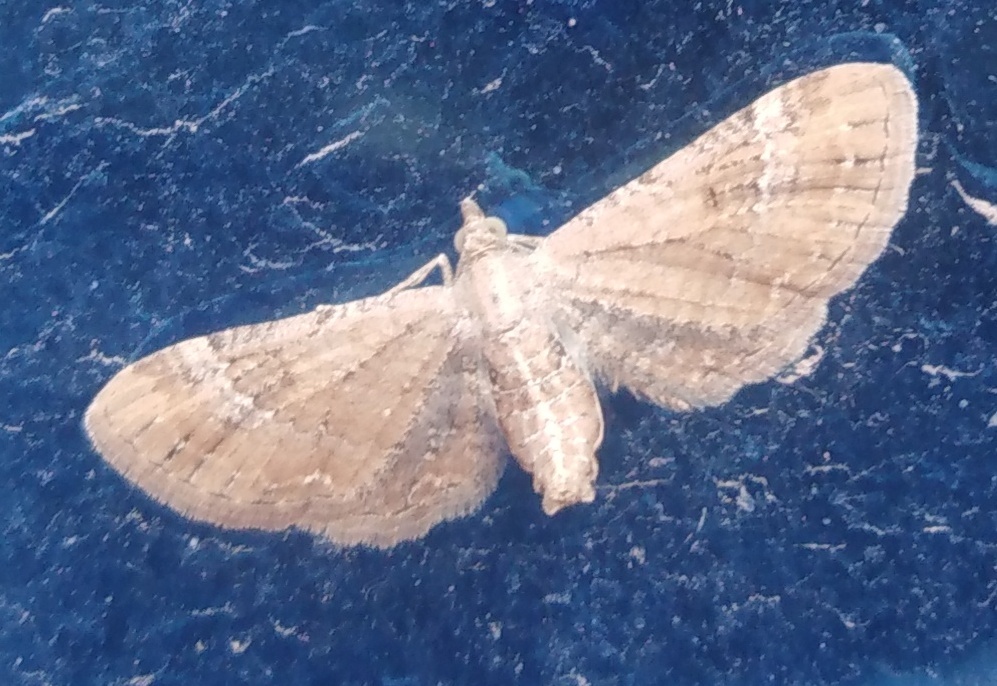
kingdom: Animalia
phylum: Arthropoda
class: Insecta
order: Lepidoptera
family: Geometridae
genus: Eupithecia
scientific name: Eupithecia simpliciata
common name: Plain pug
